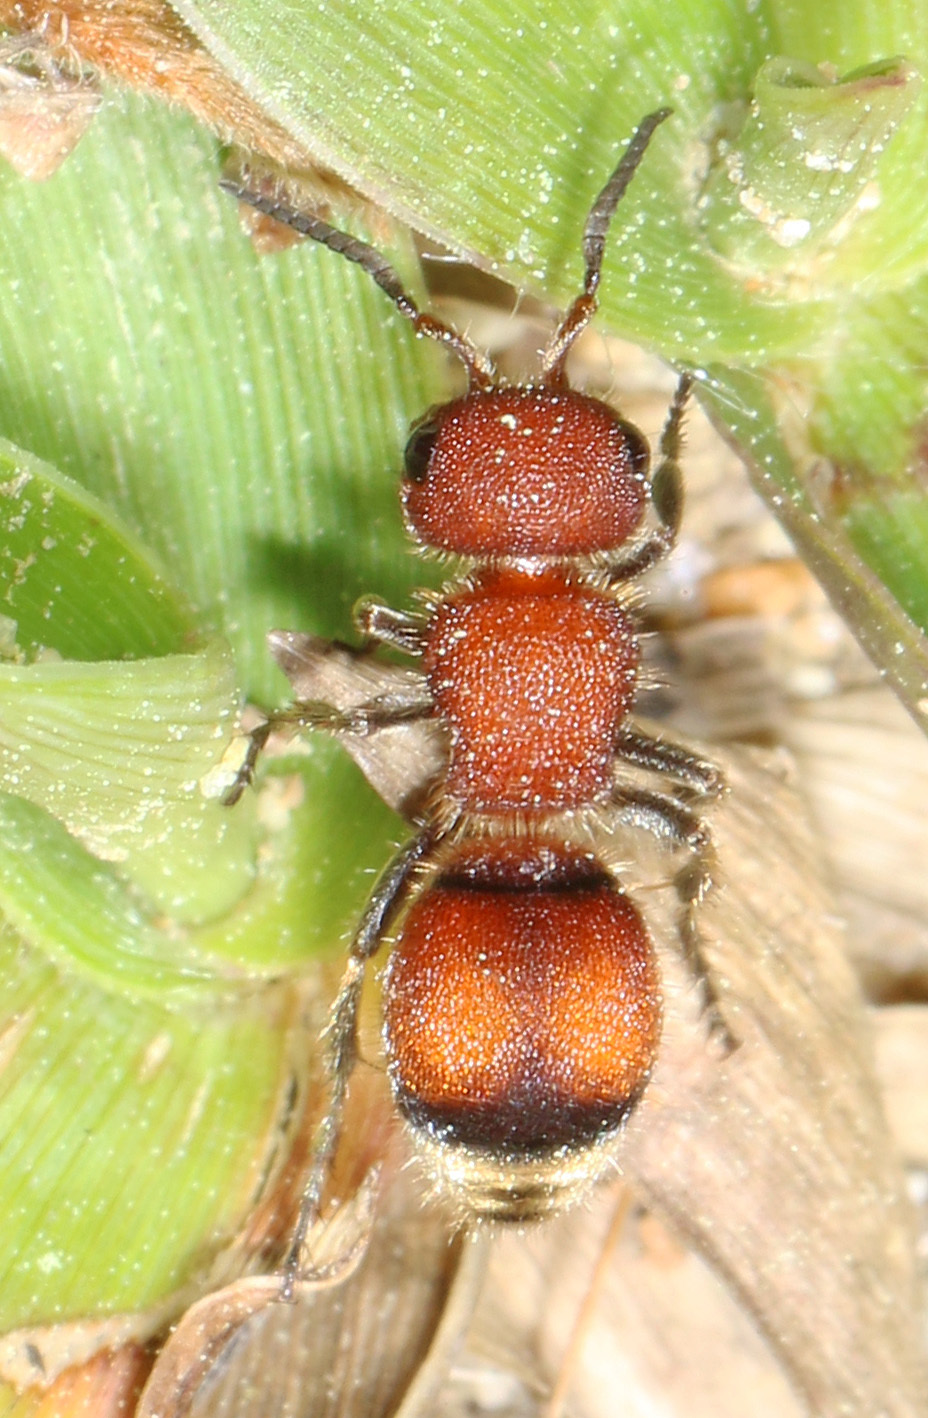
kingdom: Animalia
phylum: Arthropoda
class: Insecta
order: Hymenoptera
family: Mutillidae
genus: Pseudomethoca
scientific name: Pseudomethoca
